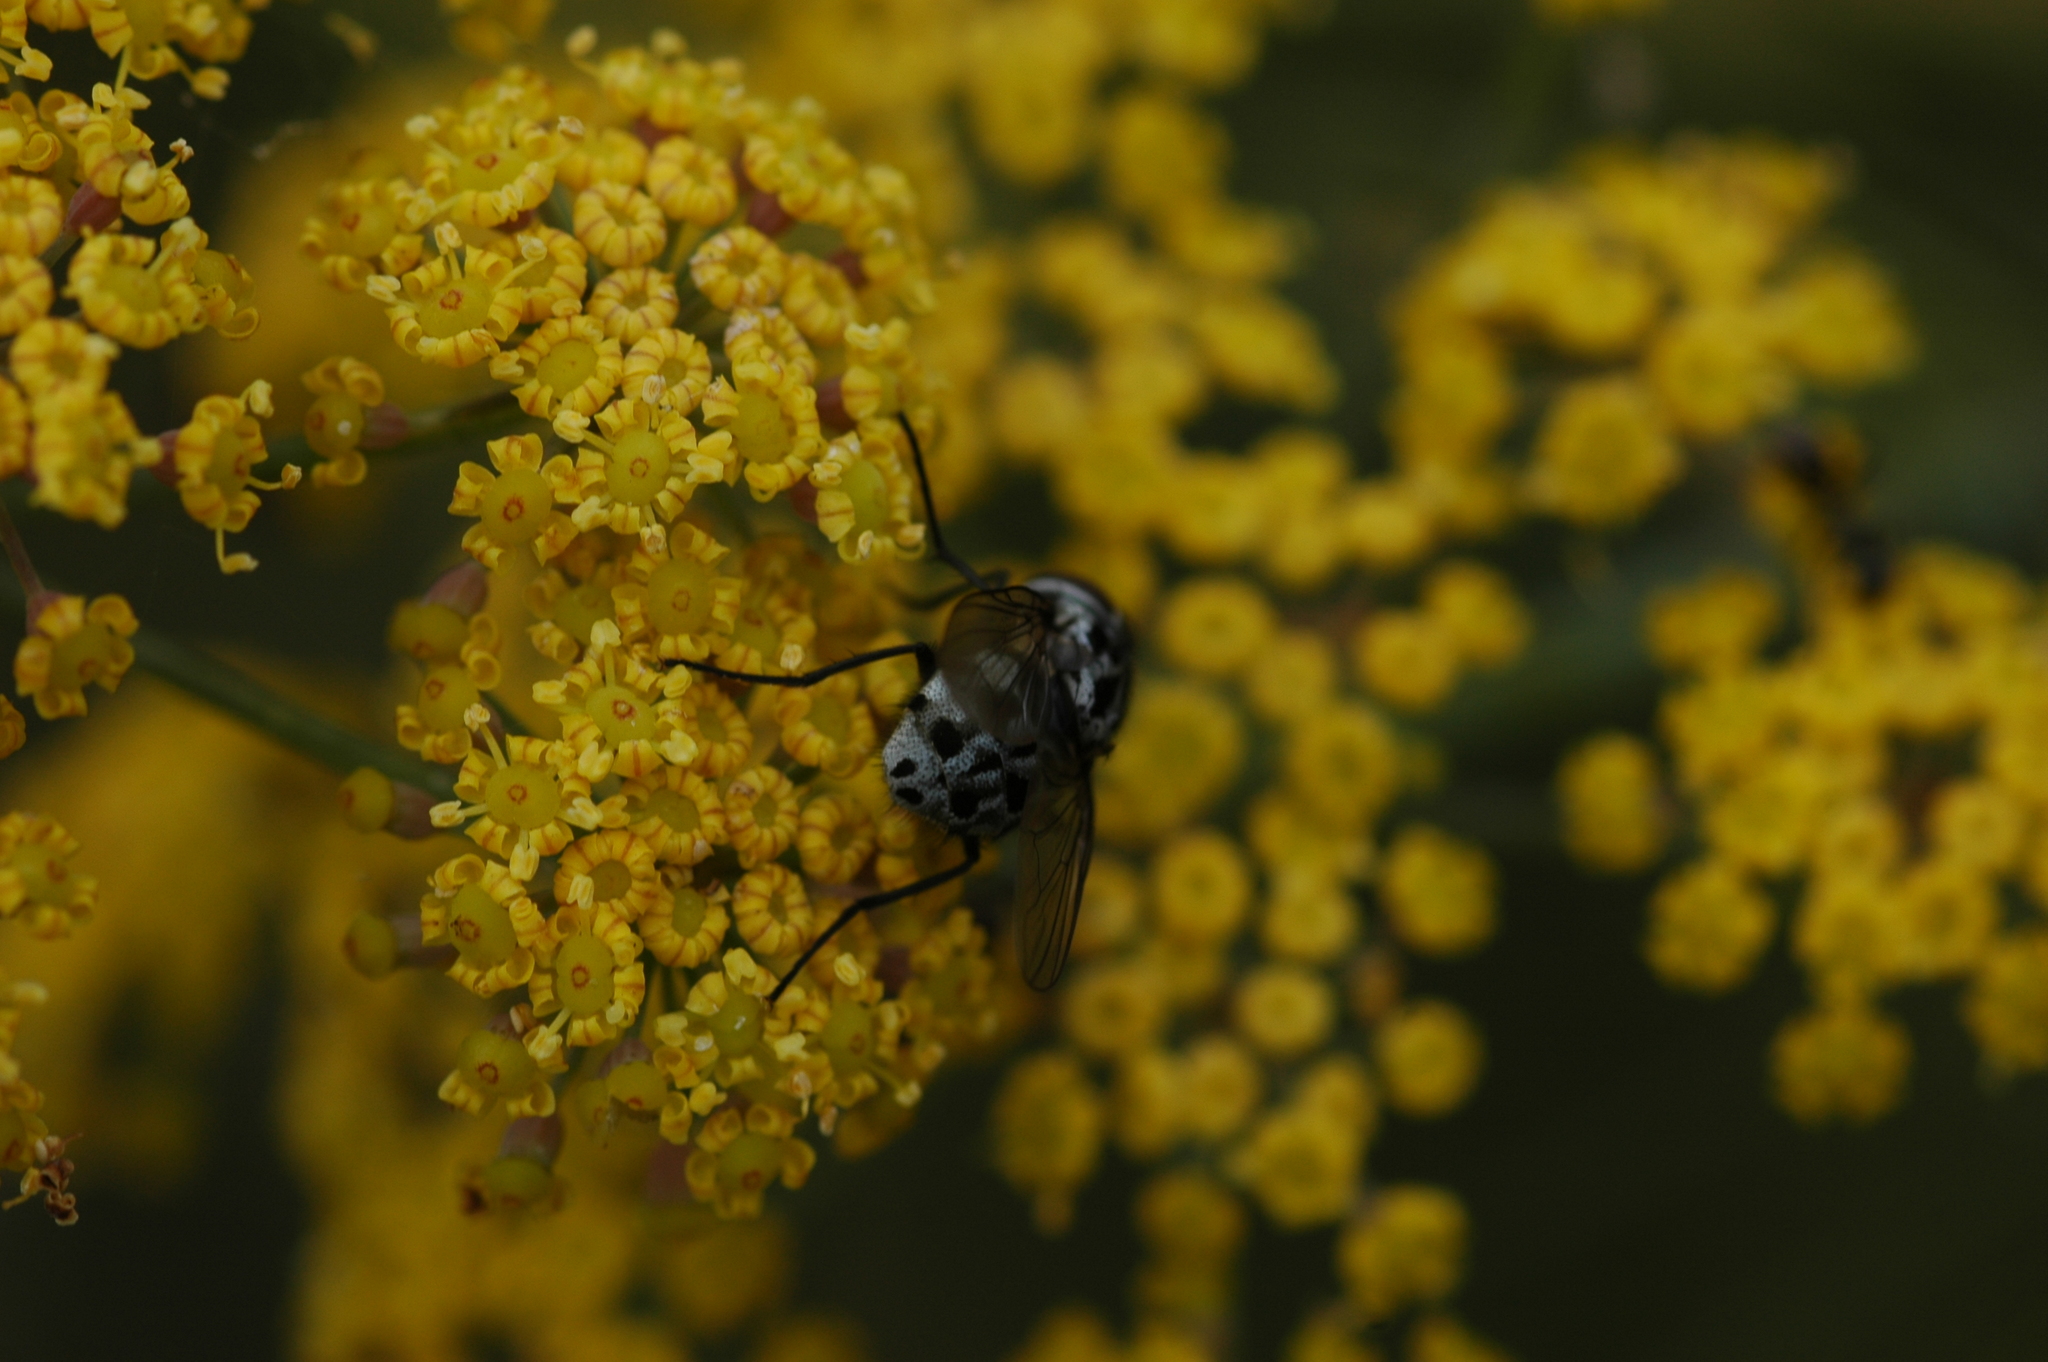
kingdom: Animalia
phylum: Arthropoda
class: Insecta
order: Diptera
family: Muscidae
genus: Graphomya
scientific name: Graphomya maculata
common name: Muscid fly
